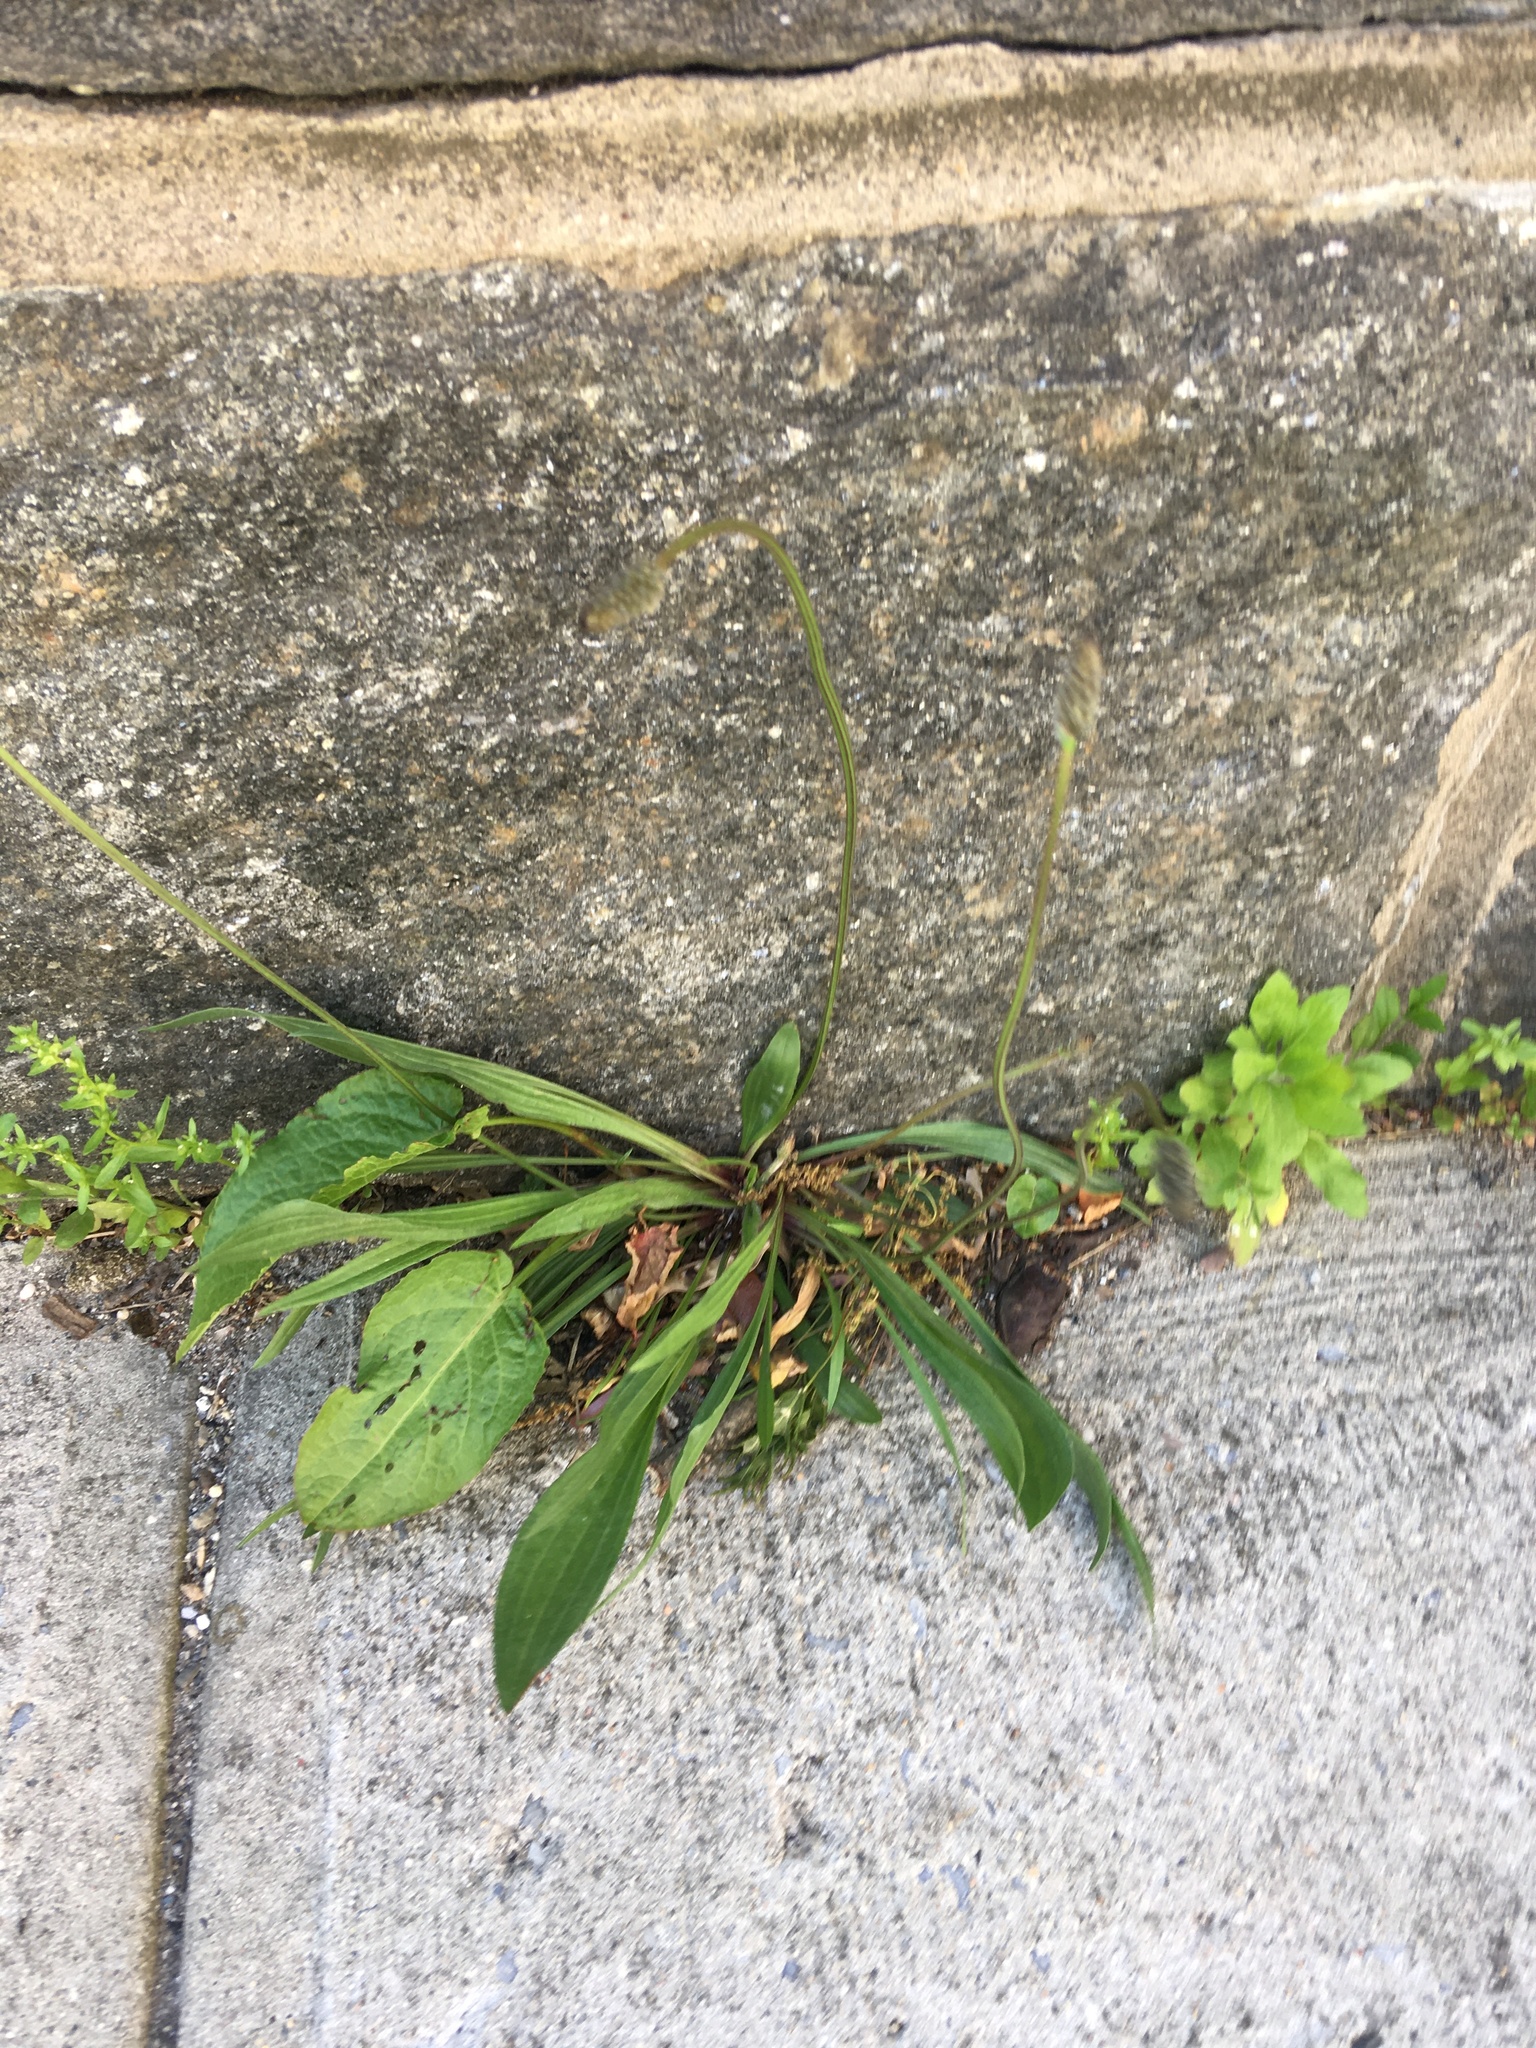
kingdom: Plantae
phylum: Tracheophyta
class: Magnoliopsida
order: Lamiales
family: Plantaginaceae
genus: Plantago
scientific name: Plantago lanceolata
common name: Ribwort plantain
